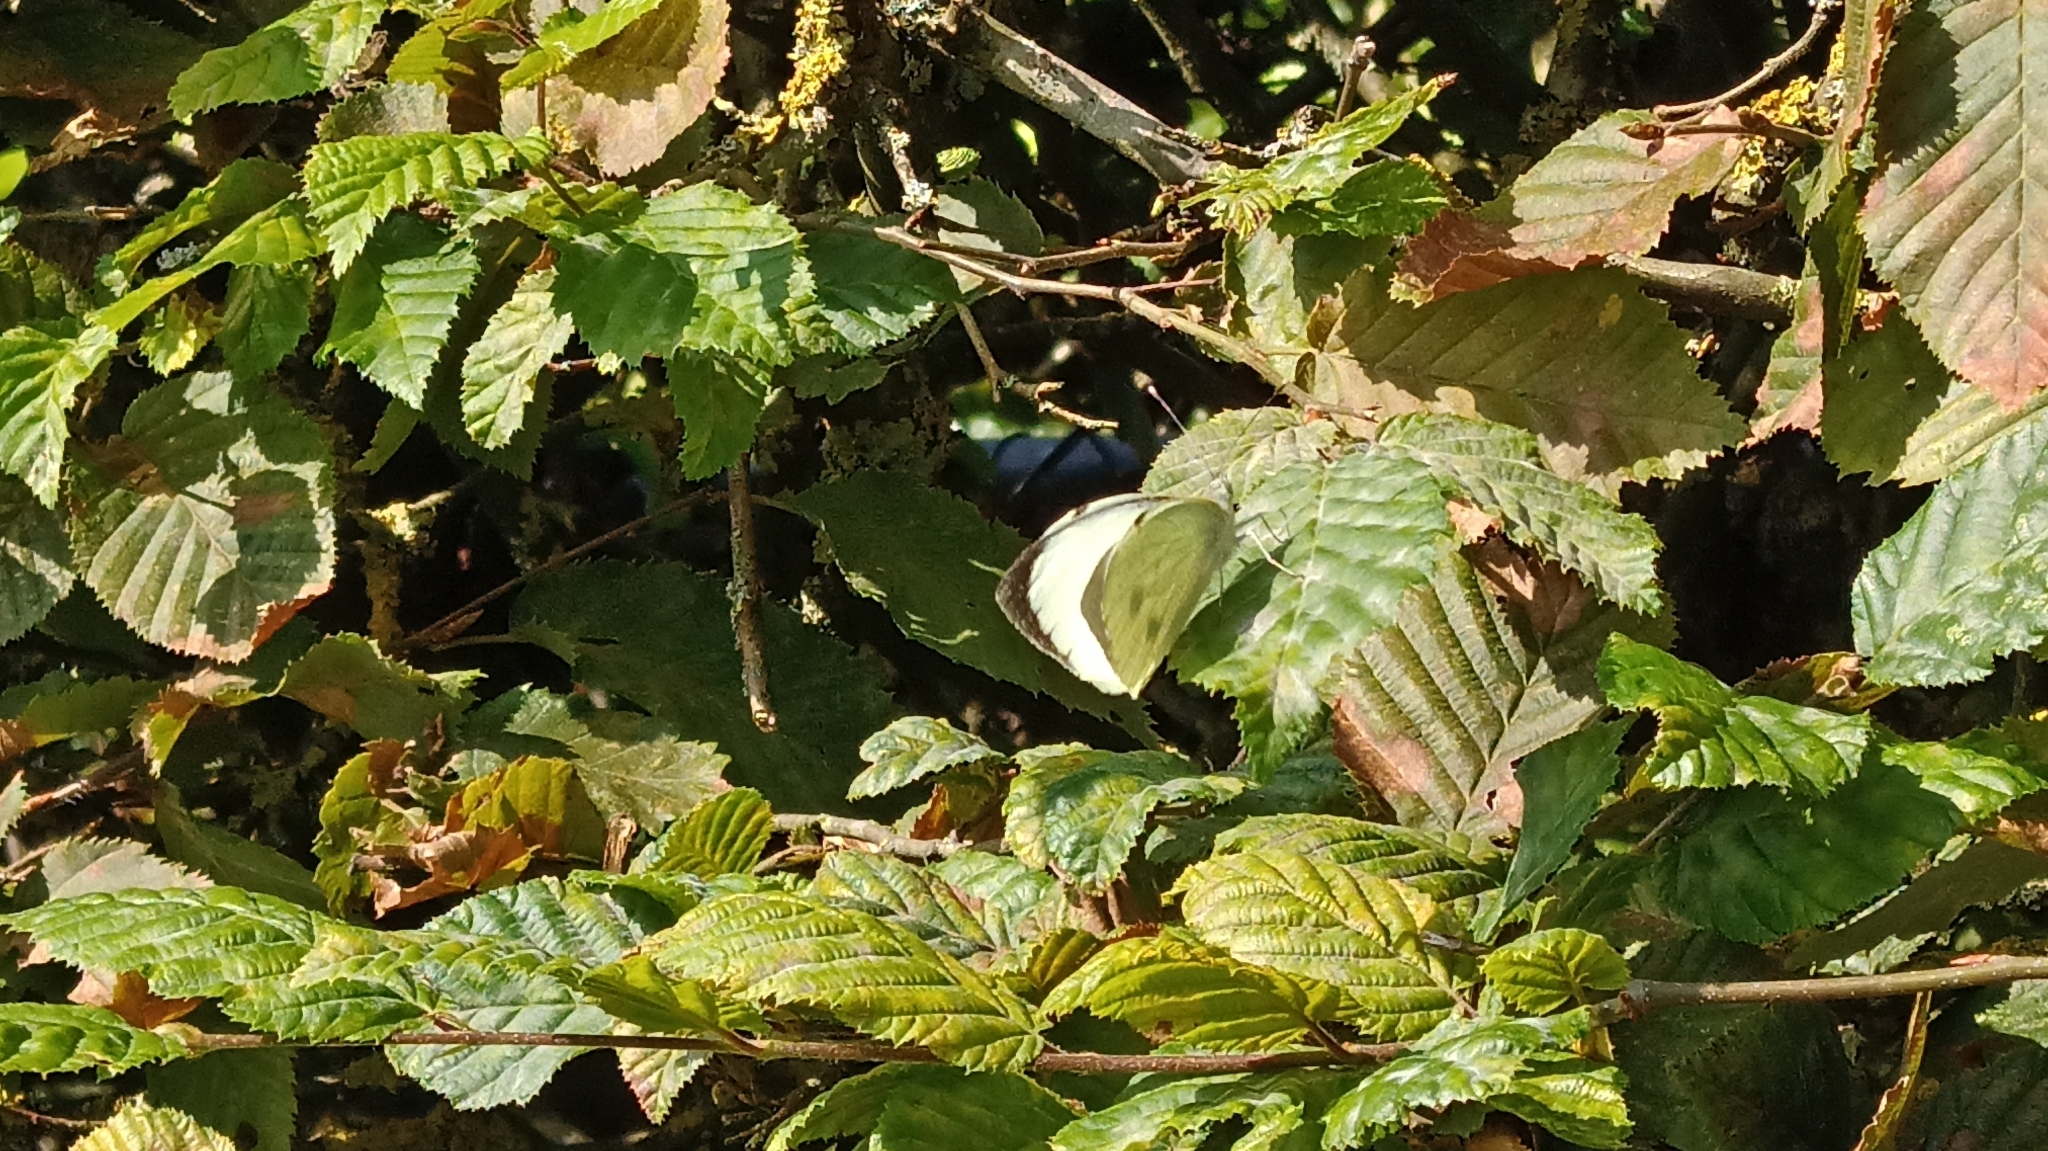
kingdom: Animalia
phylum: Arthropoda
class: Insecta
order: Lepidoptera
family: Pieridae
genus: Pieris
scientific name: Pieris brassicae
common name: Large white
